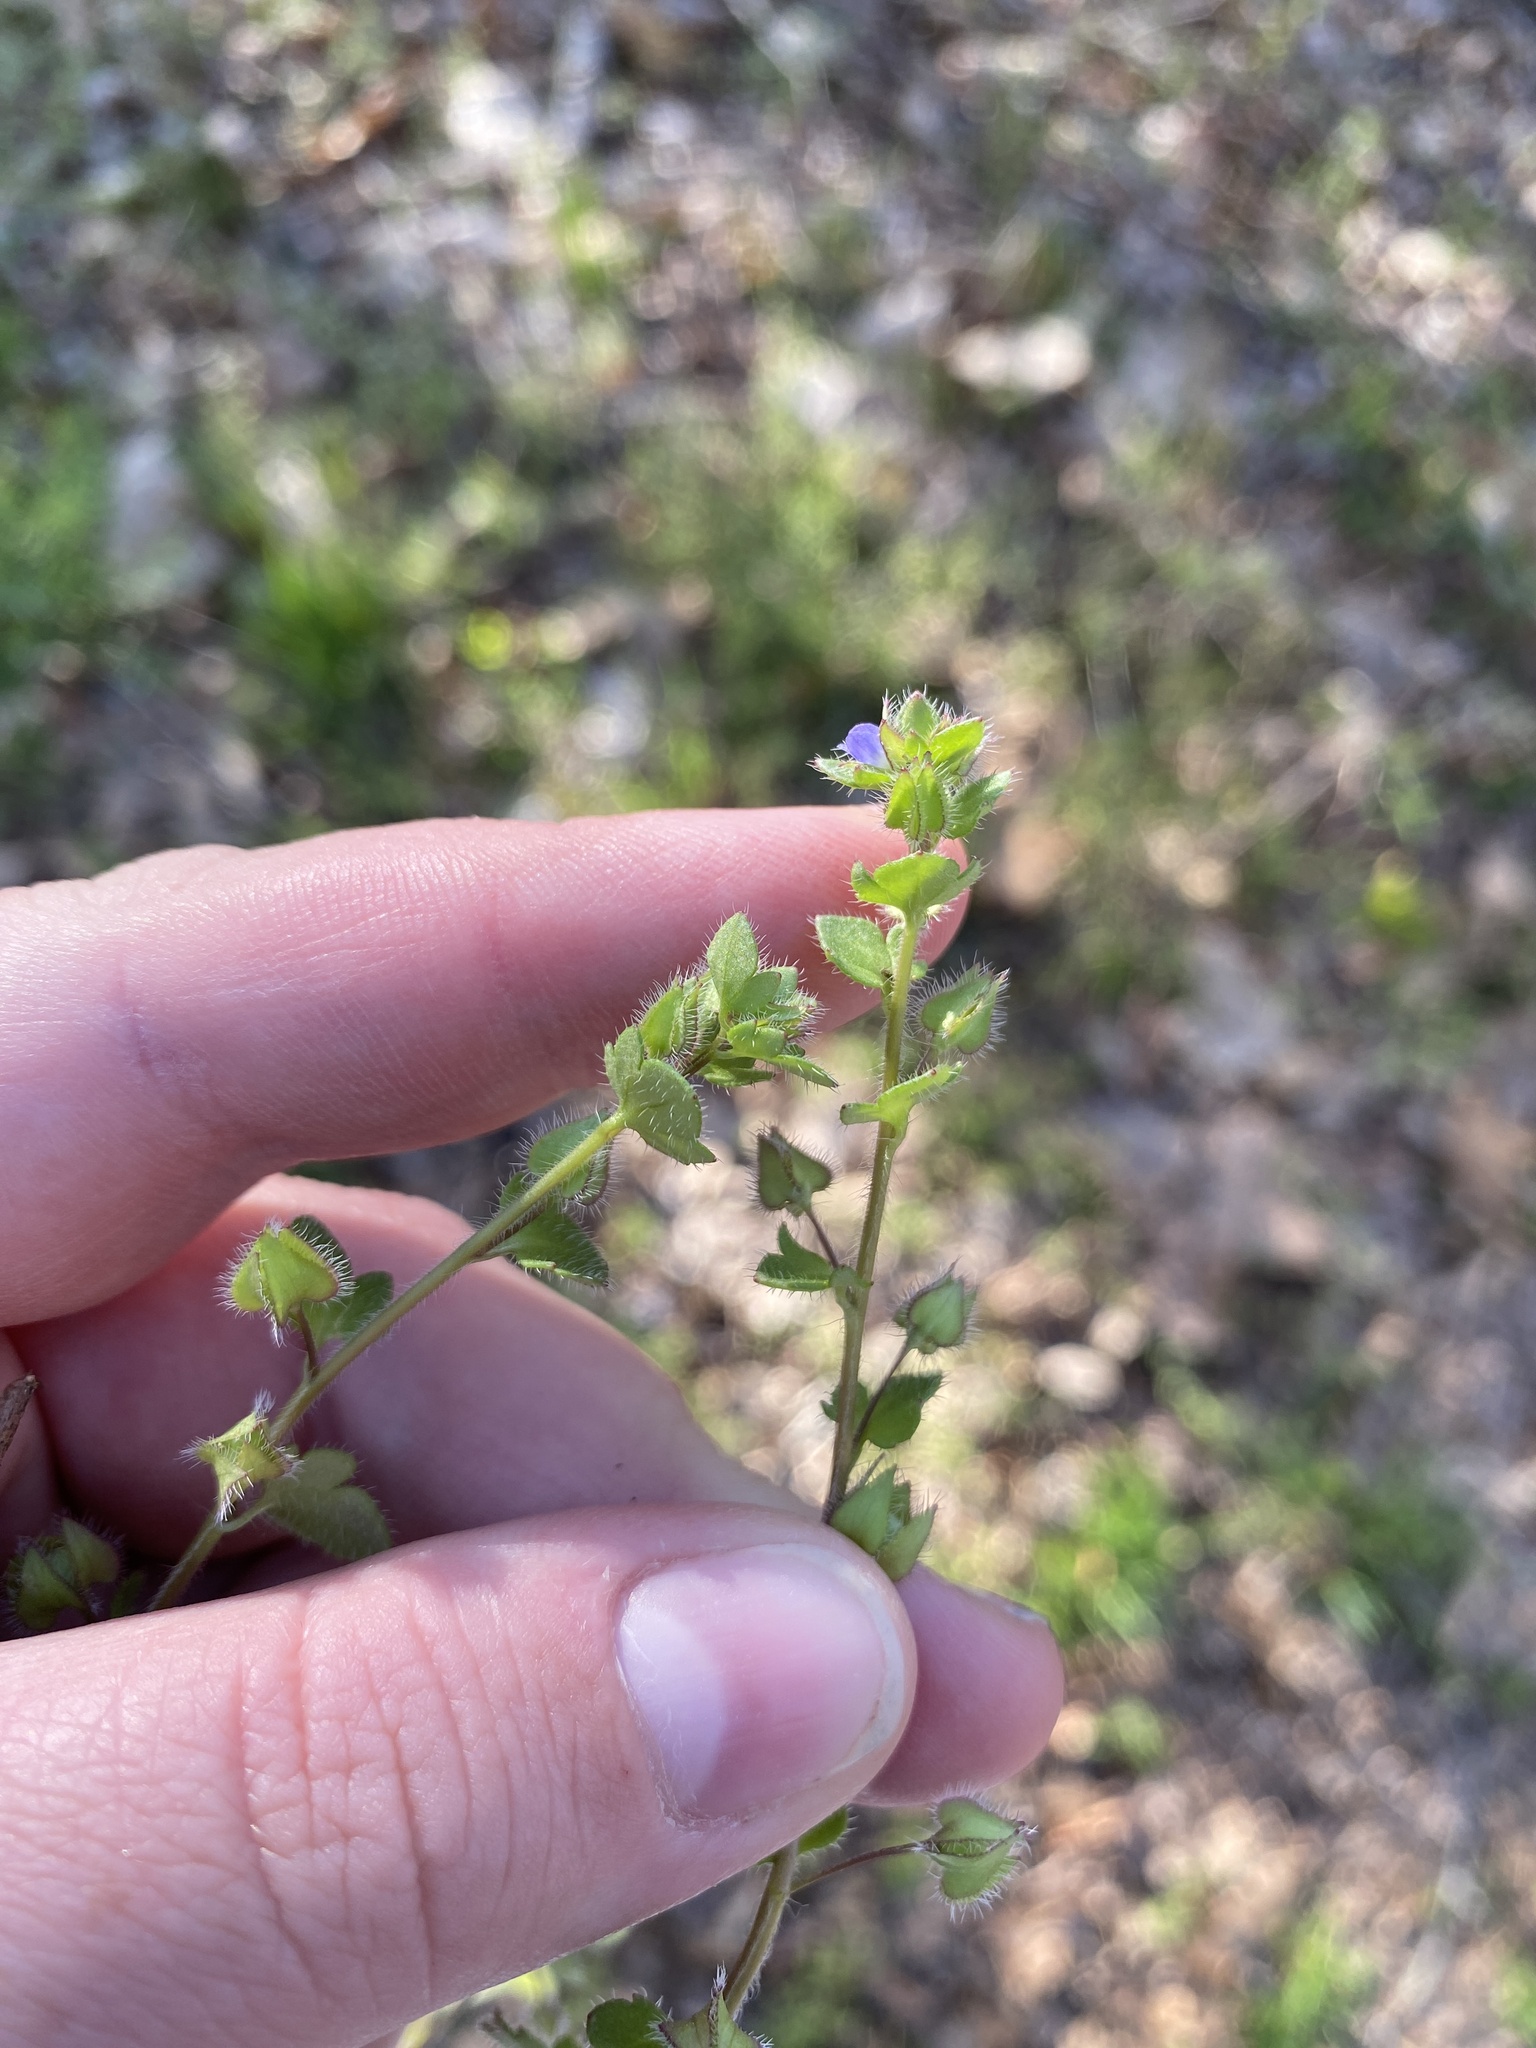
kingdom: Plantae
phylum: Tracheophyta
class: Magnoliopsida
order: Lamiales
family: Plantaginaceae
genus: Veronica
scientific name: Veronica hederifolia
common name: Ivy-leaved speedwell
